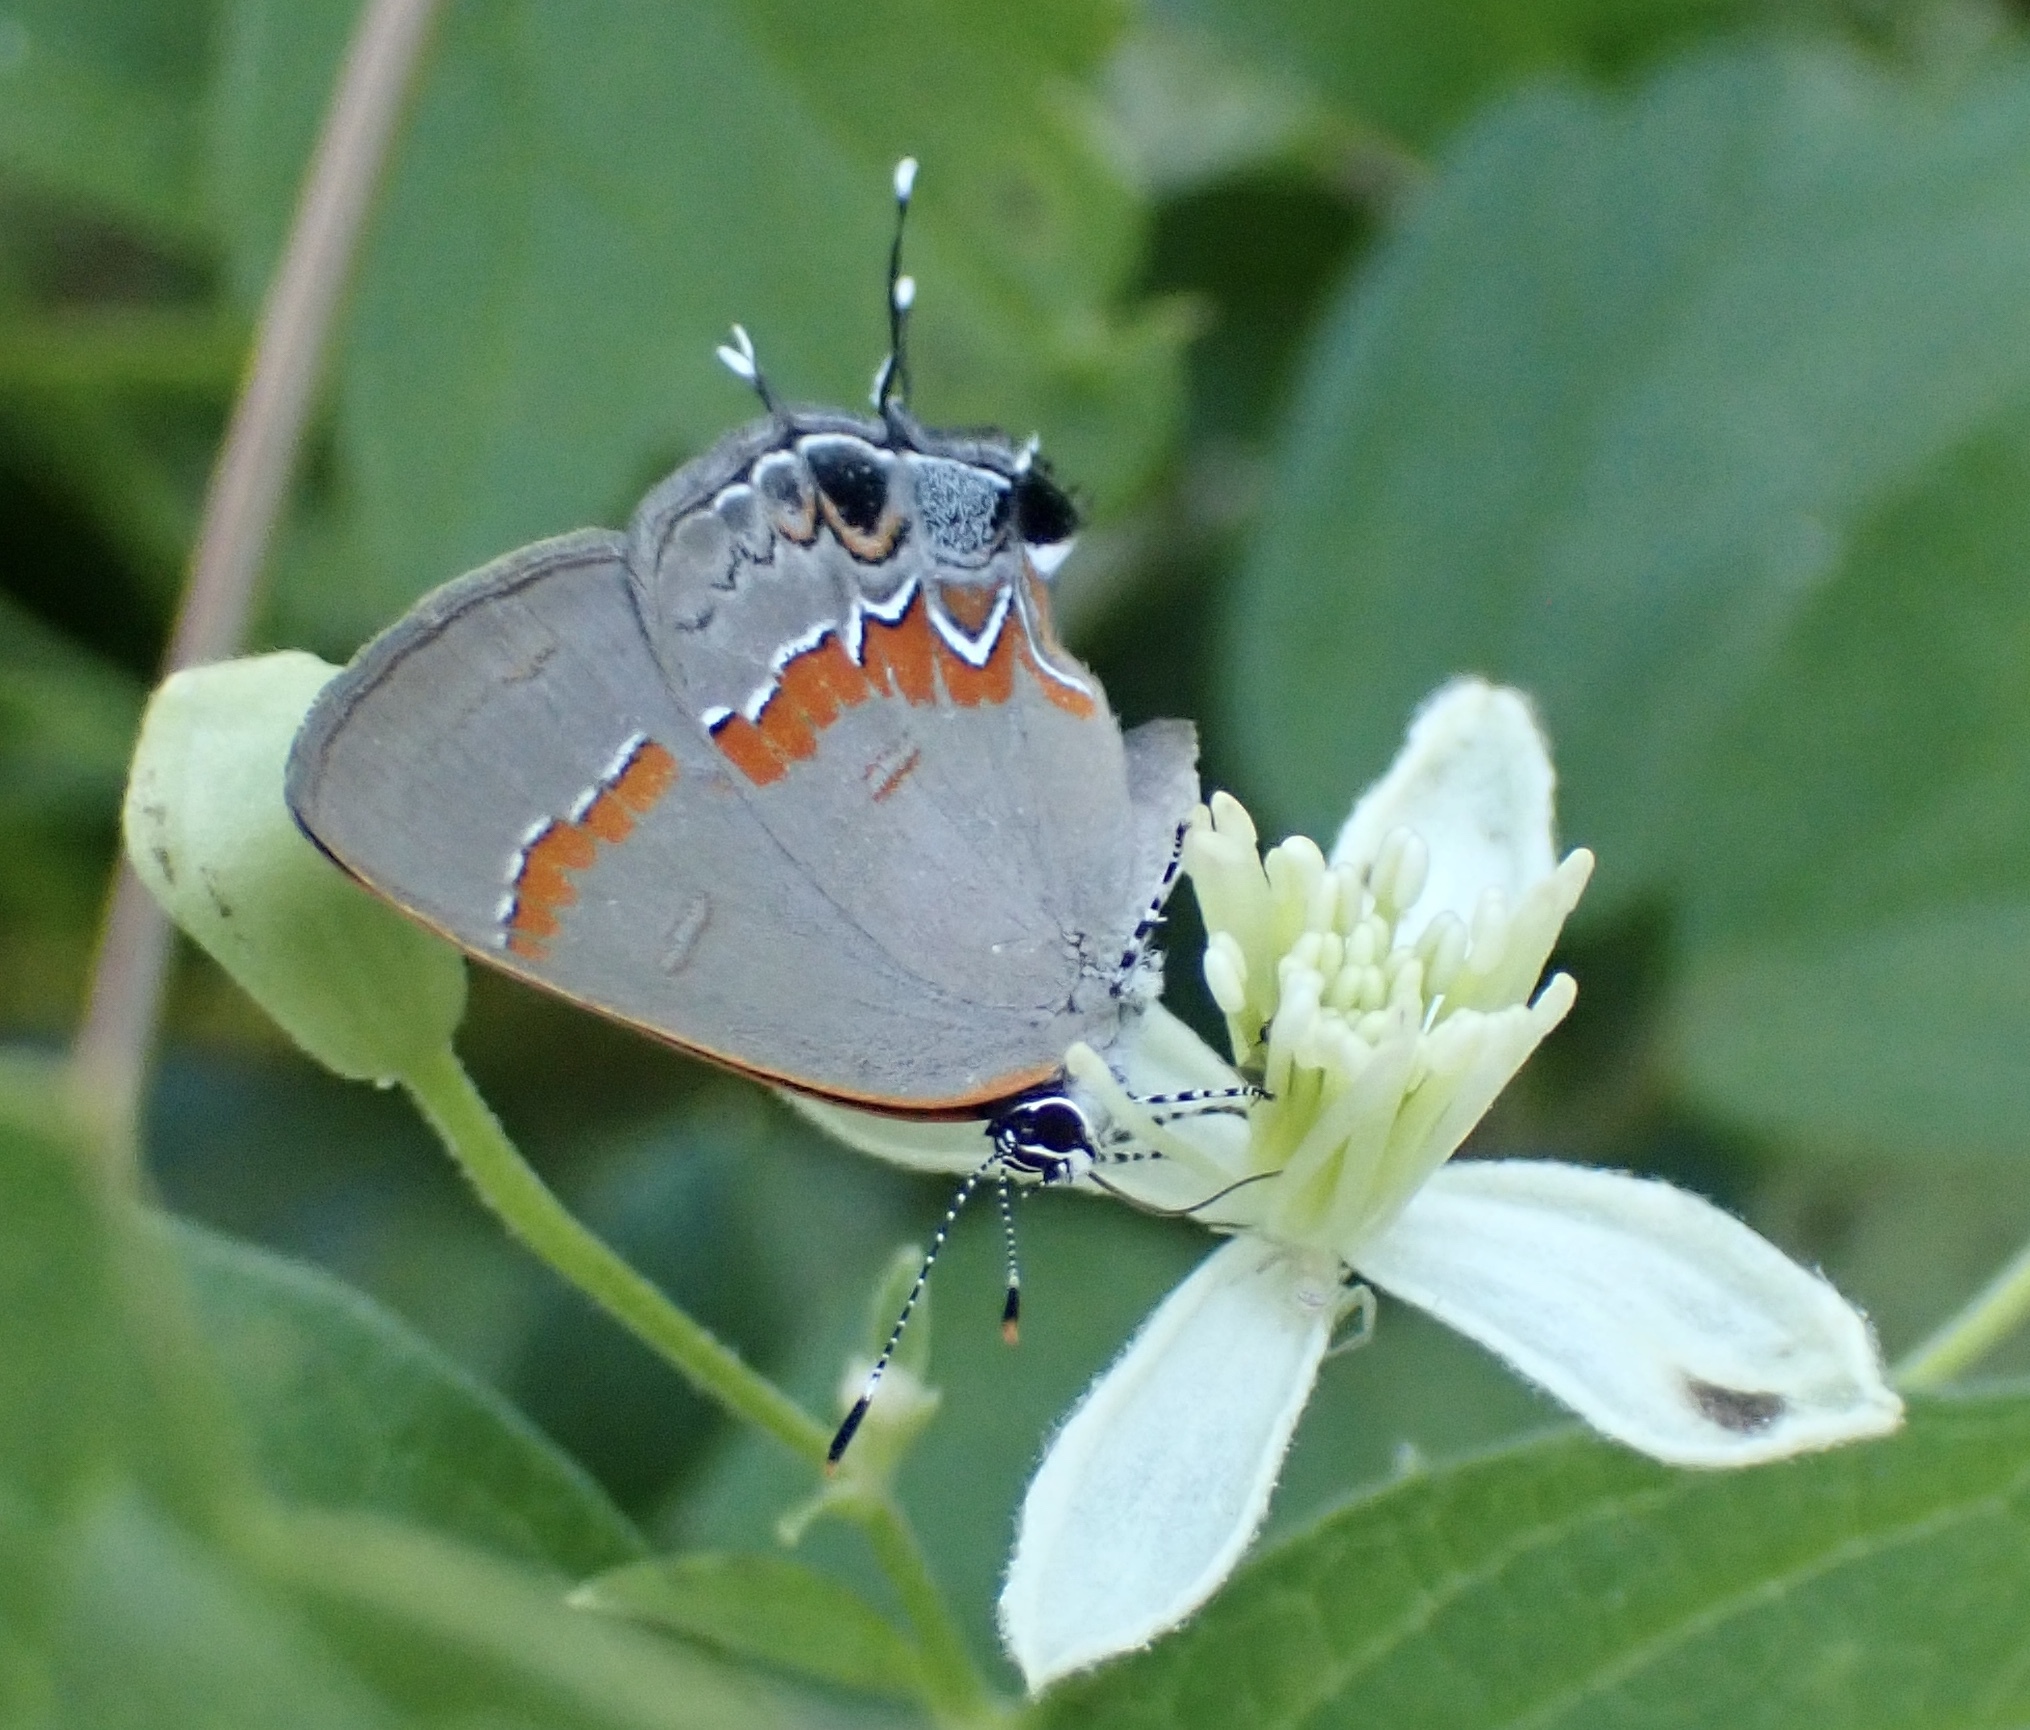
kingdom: Animalia
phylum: Arthropoda
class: Insecta
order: Lepidoptera
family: Lycaenidae
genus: Calycopis
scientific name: Calycopis cecrops
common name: Red-banded hairstreak
